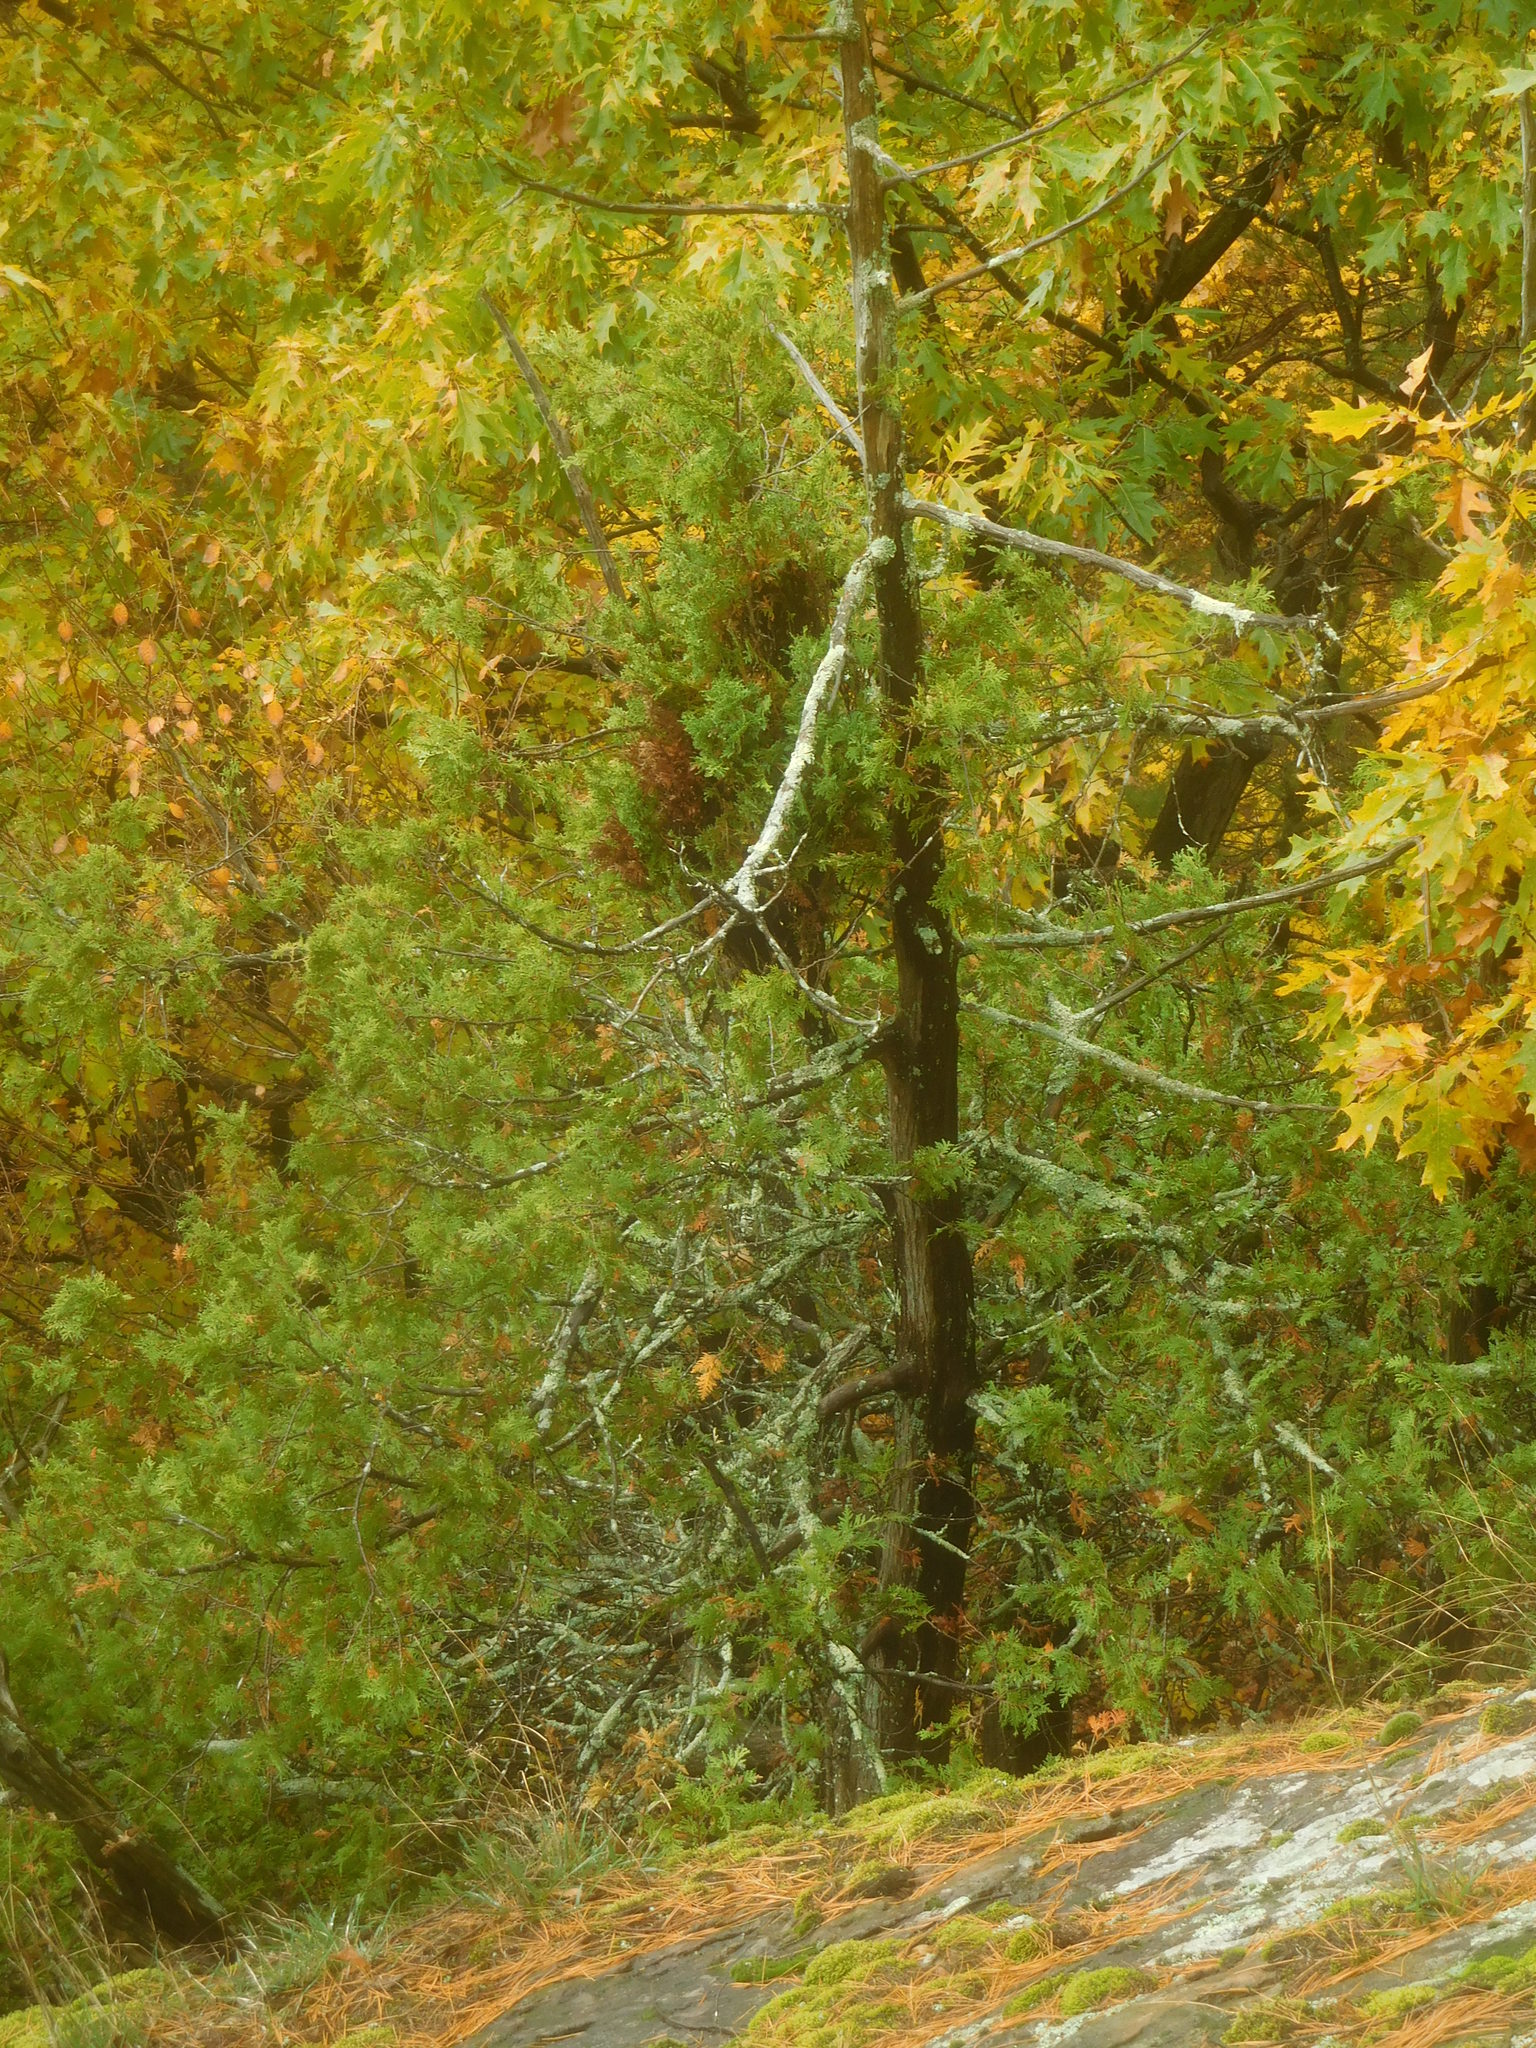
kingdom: Plantae
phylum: Tracheophyta
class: Pinopsida
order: Pinales
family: Cupressaceae
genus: Thuja
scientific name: Thuja occidentalis
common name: Northern white-cedar
